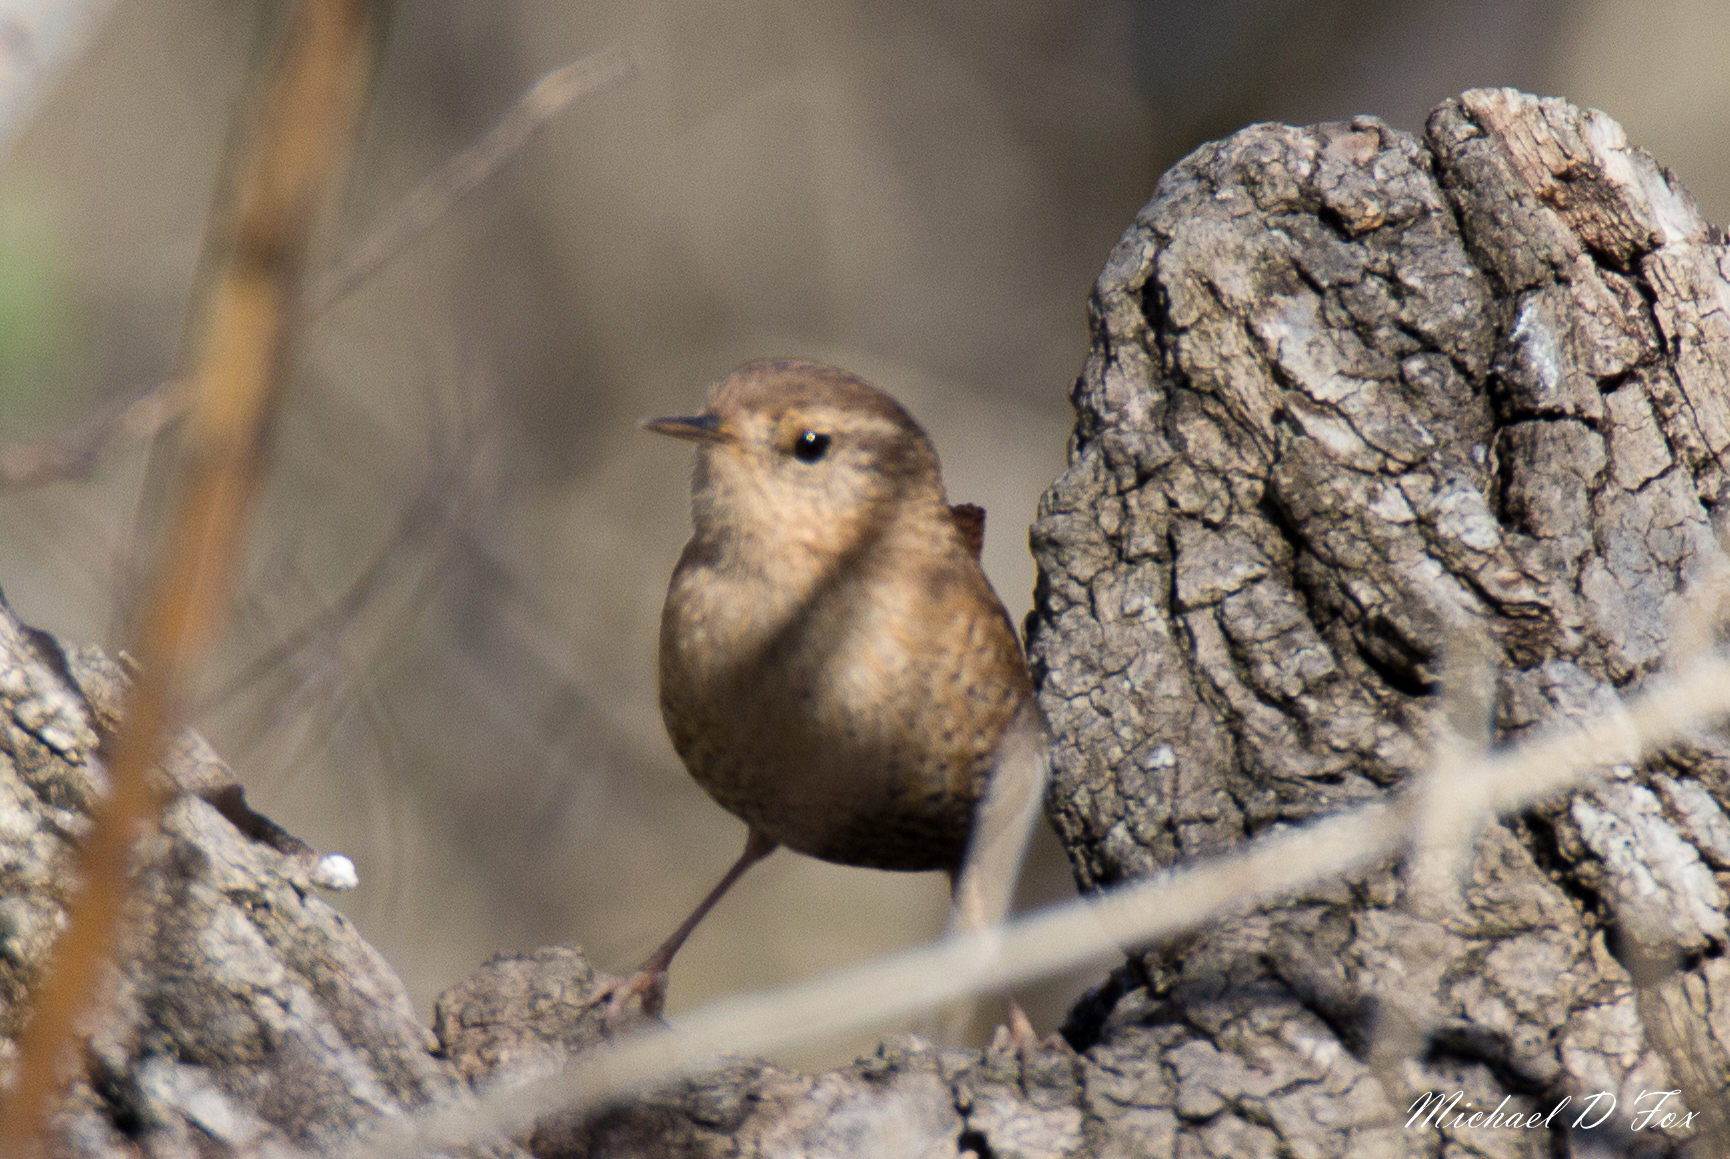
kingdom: Animalia
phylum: Chordata
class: Aves
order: Passeriformes
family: Troglodytidae
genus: Troglodytes
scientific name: Troglodytes hiemalis
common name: Winter wren
